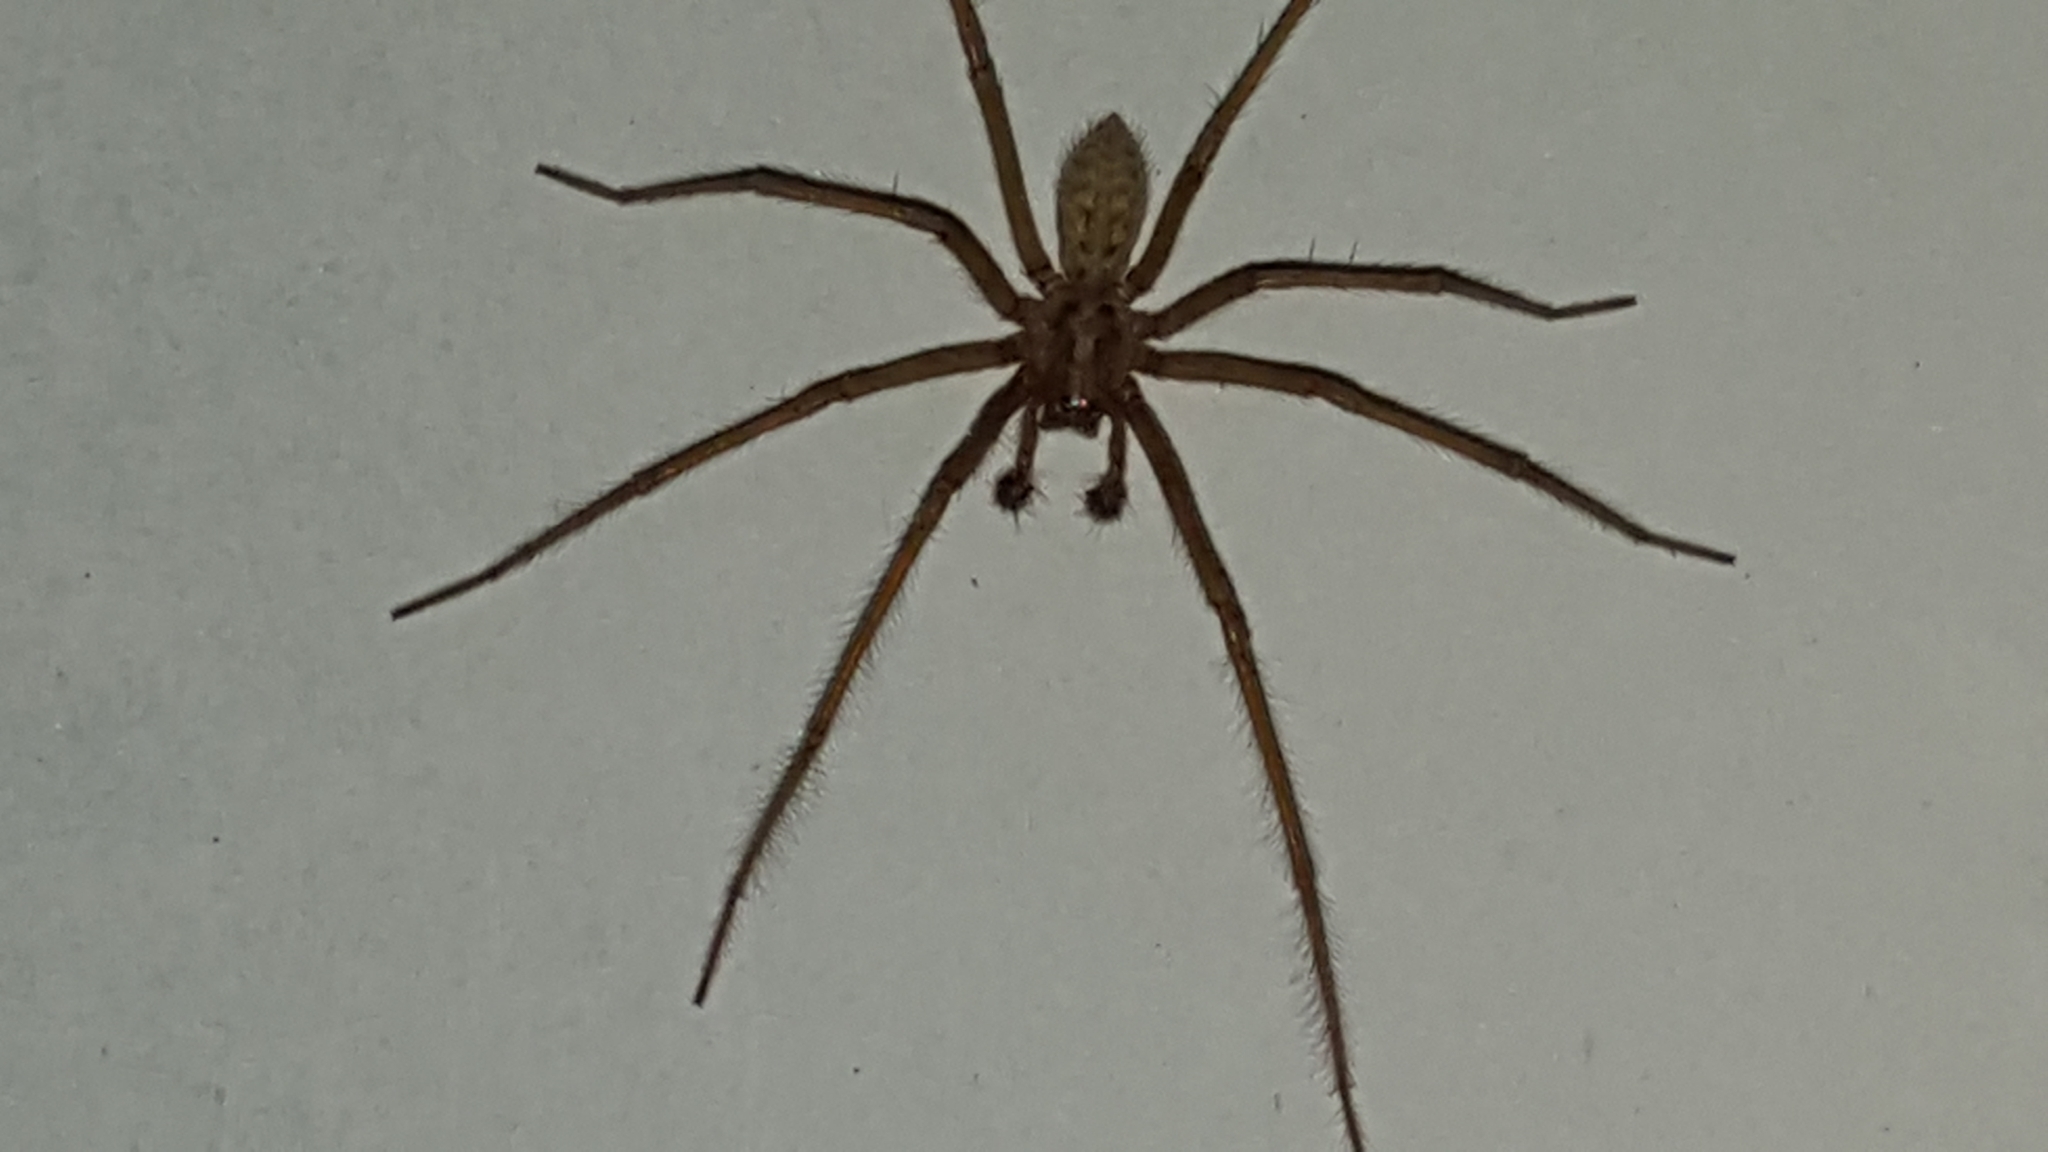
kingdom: Animalia
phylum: Arthropoda
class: Arachnida
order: Araneae
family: Agelenidae
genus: Eratigena
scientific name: Eratigena
